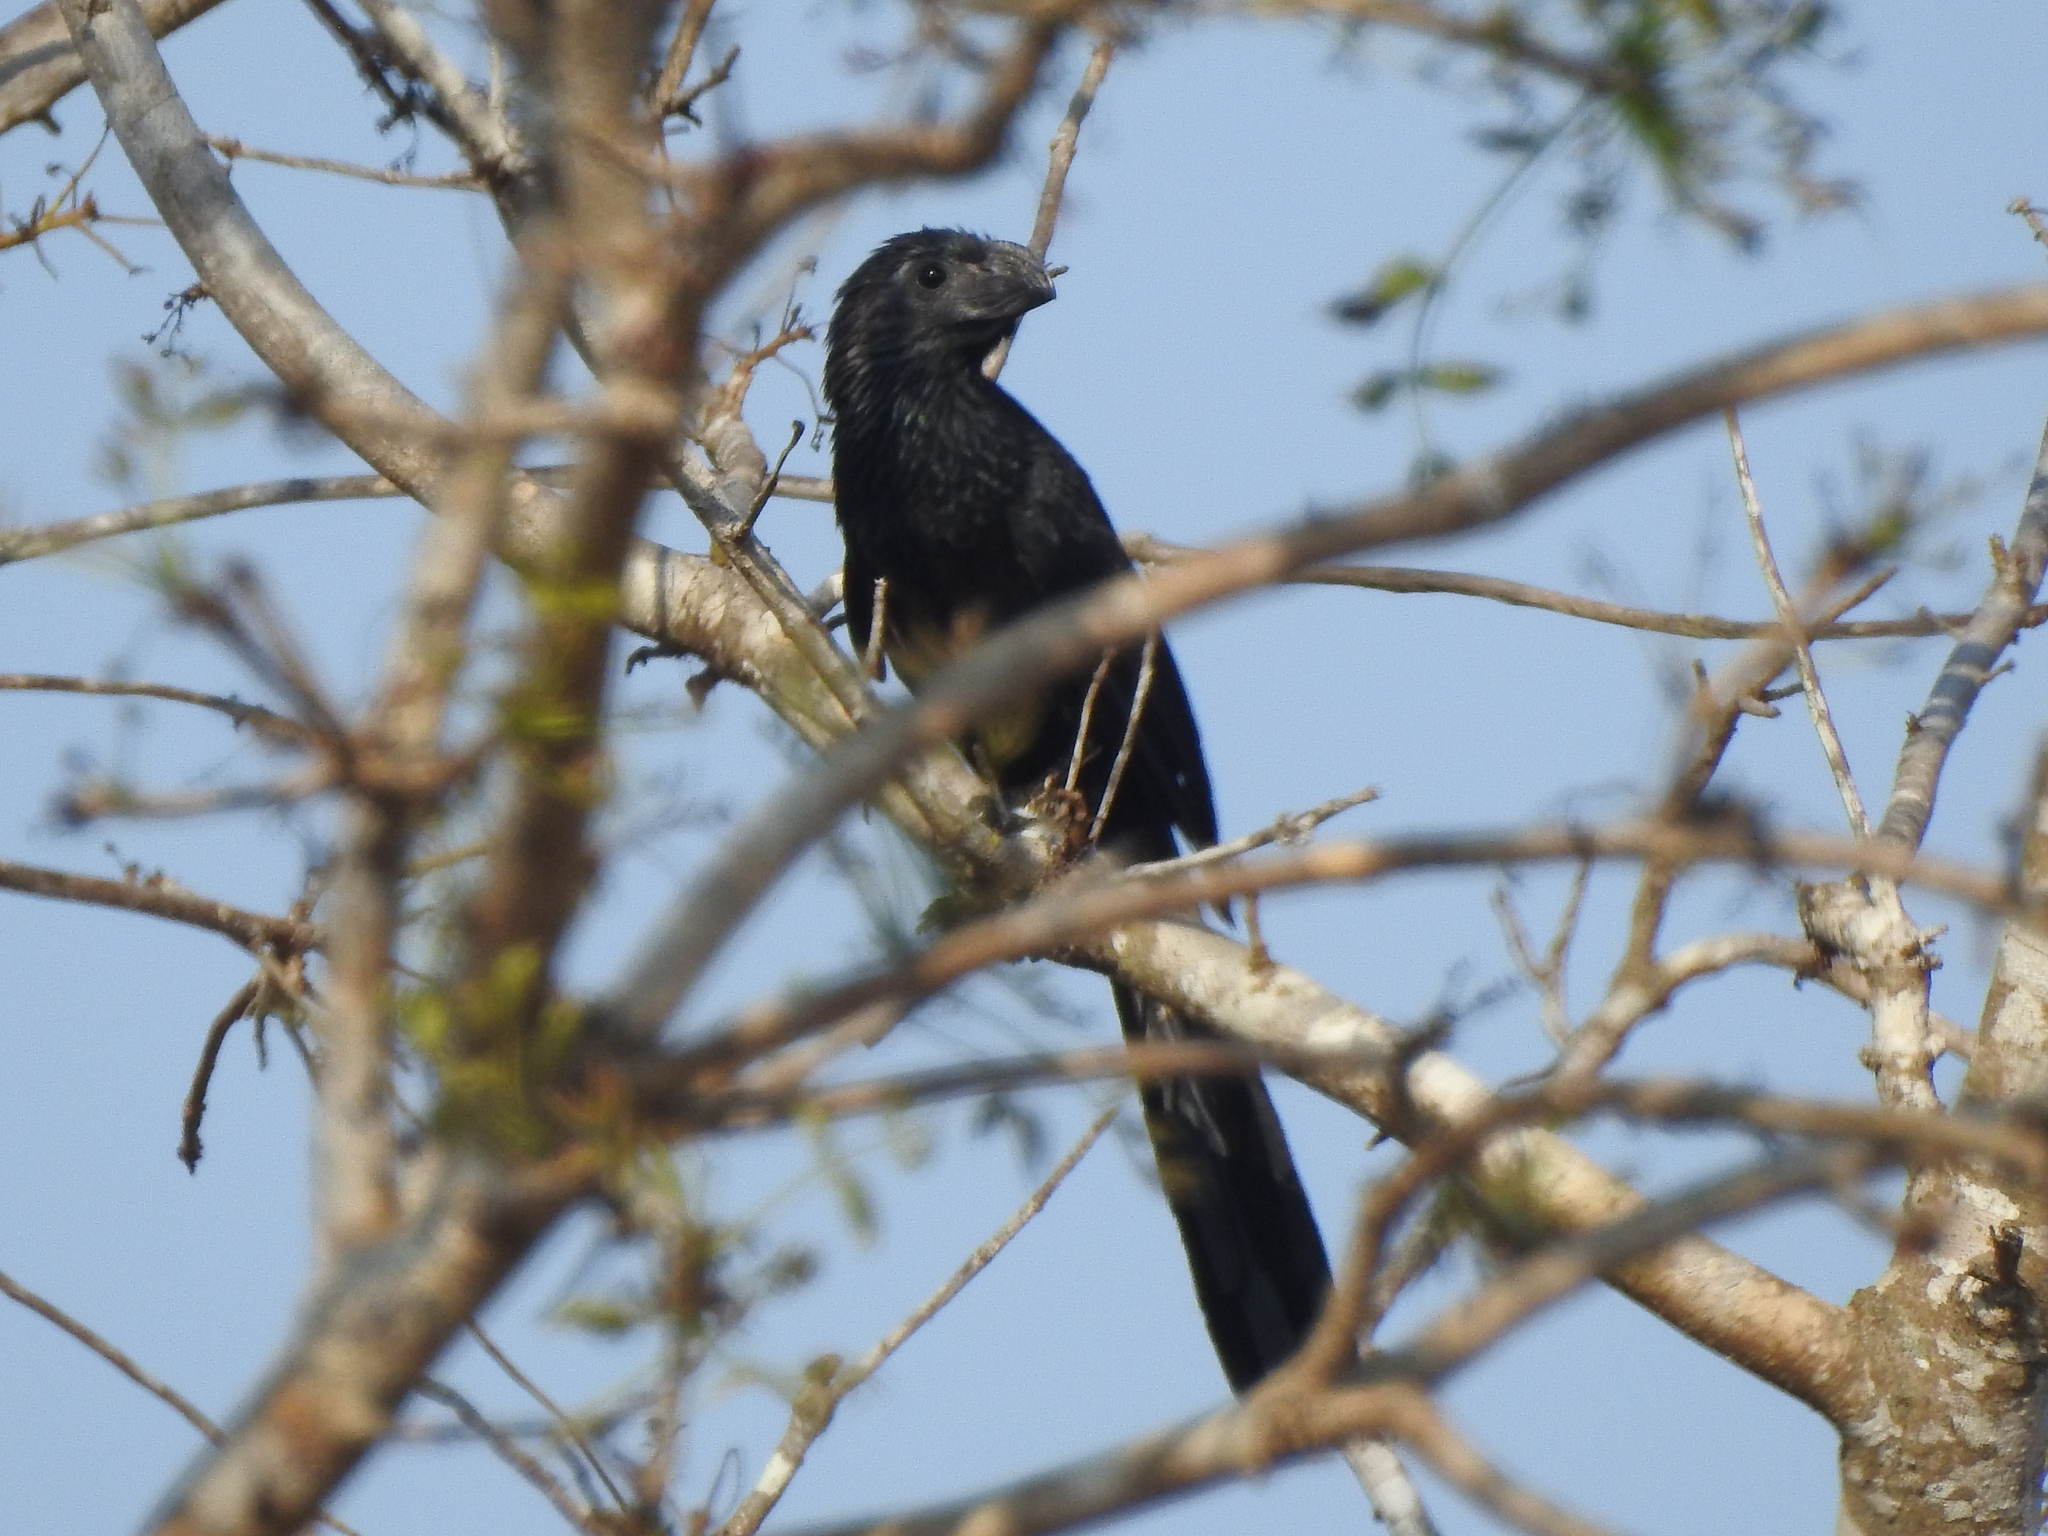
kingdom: Animalia
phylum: Chordata
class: Aves
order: Cuculiformes
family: Cuculidae
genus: Crotophaga
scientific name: Crotophaga sulcirostris
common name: Groove-billed ani
